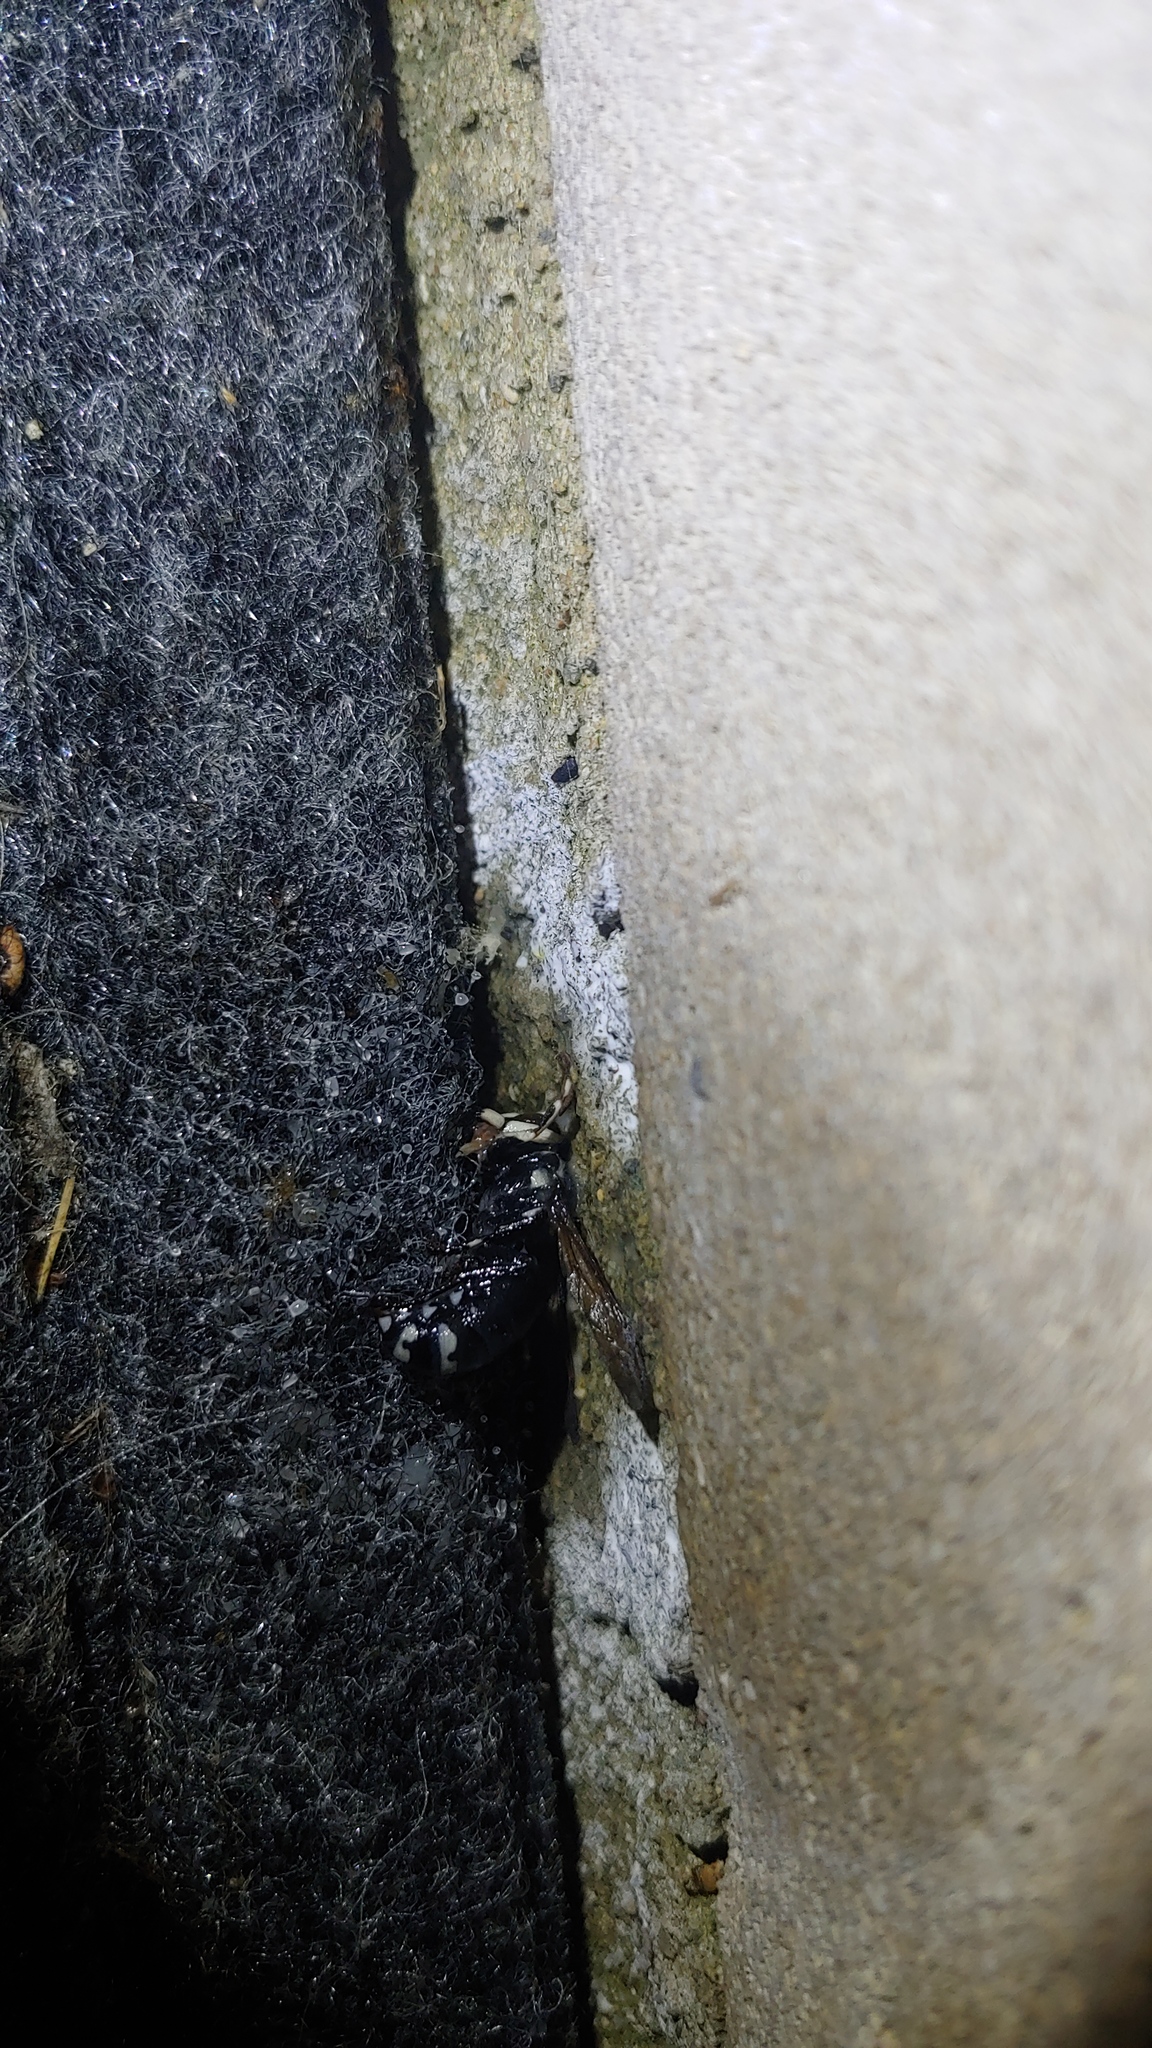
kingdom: Animalia
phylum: Arthropoda
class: Insecta
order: Hymenoptera
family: Vespidae
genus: Dolichovespula
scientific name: Dolichovespula maculata
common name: Bald-faced hornet
